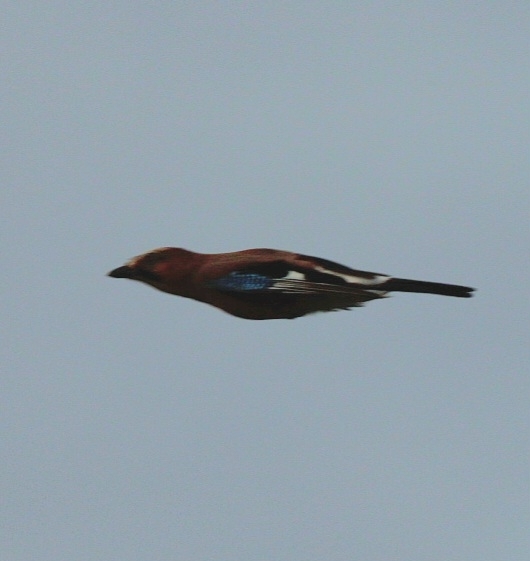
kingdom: Animalia
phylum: Chordata
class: Aves
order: Passeriformes
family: Corvidae
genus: Garrulus
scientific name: Garrulus glandarius
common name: Eurasian jay
